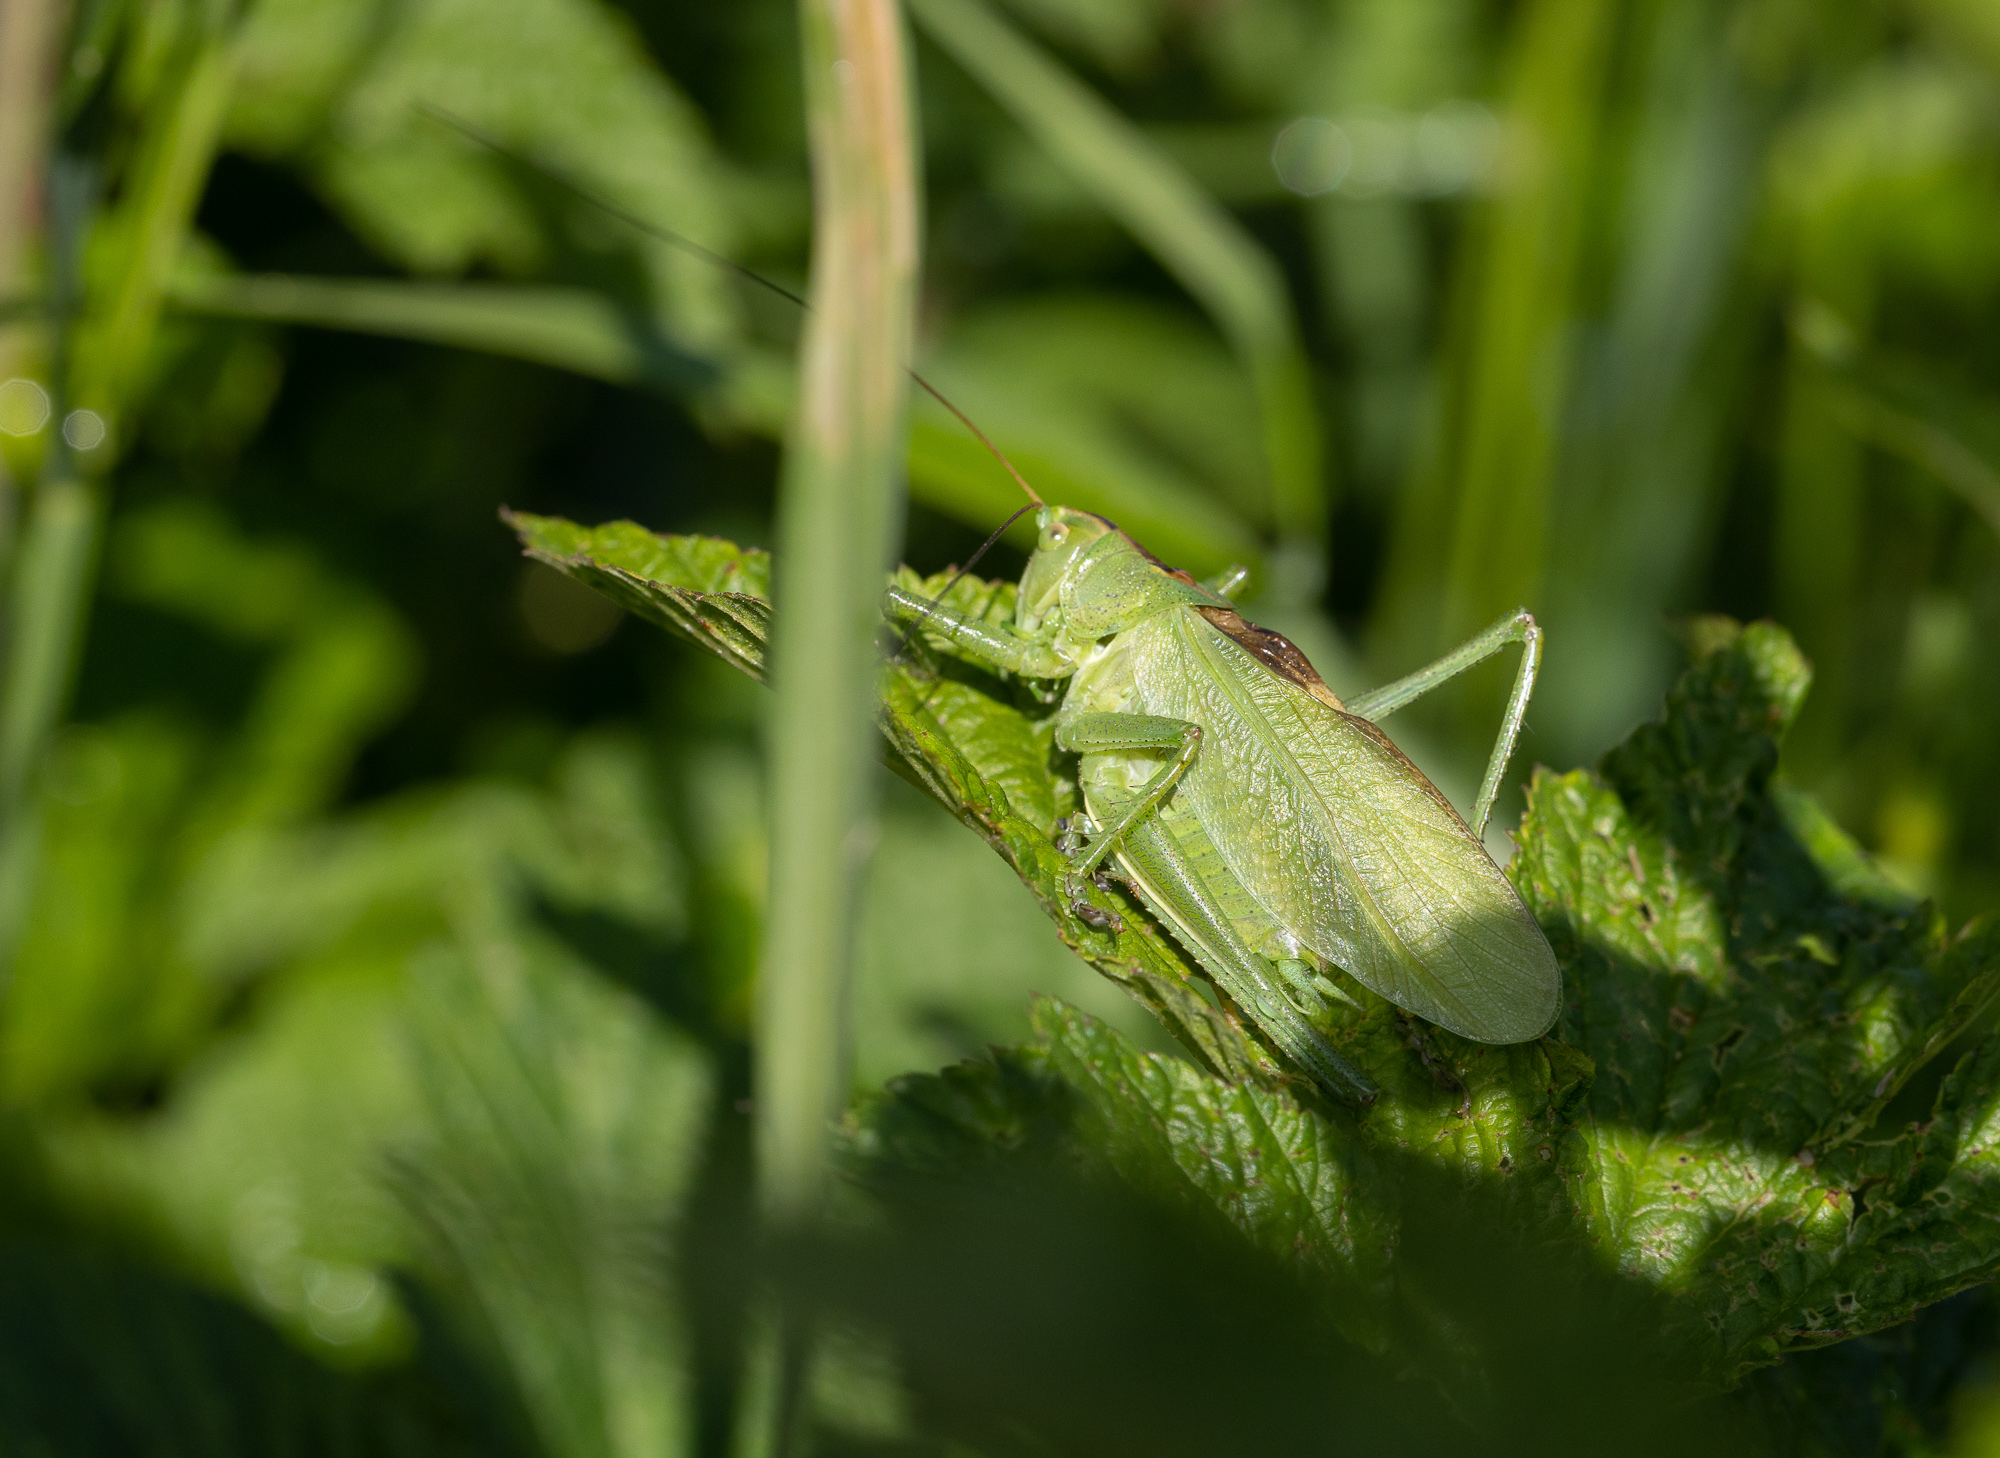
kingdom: Animalia
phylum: Arthropoda
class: Insecta
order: Orthoptera
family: Tettigoniidae
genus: Tettigonia
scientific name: Tettigonia cantans
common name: Upland green bush-cricket
